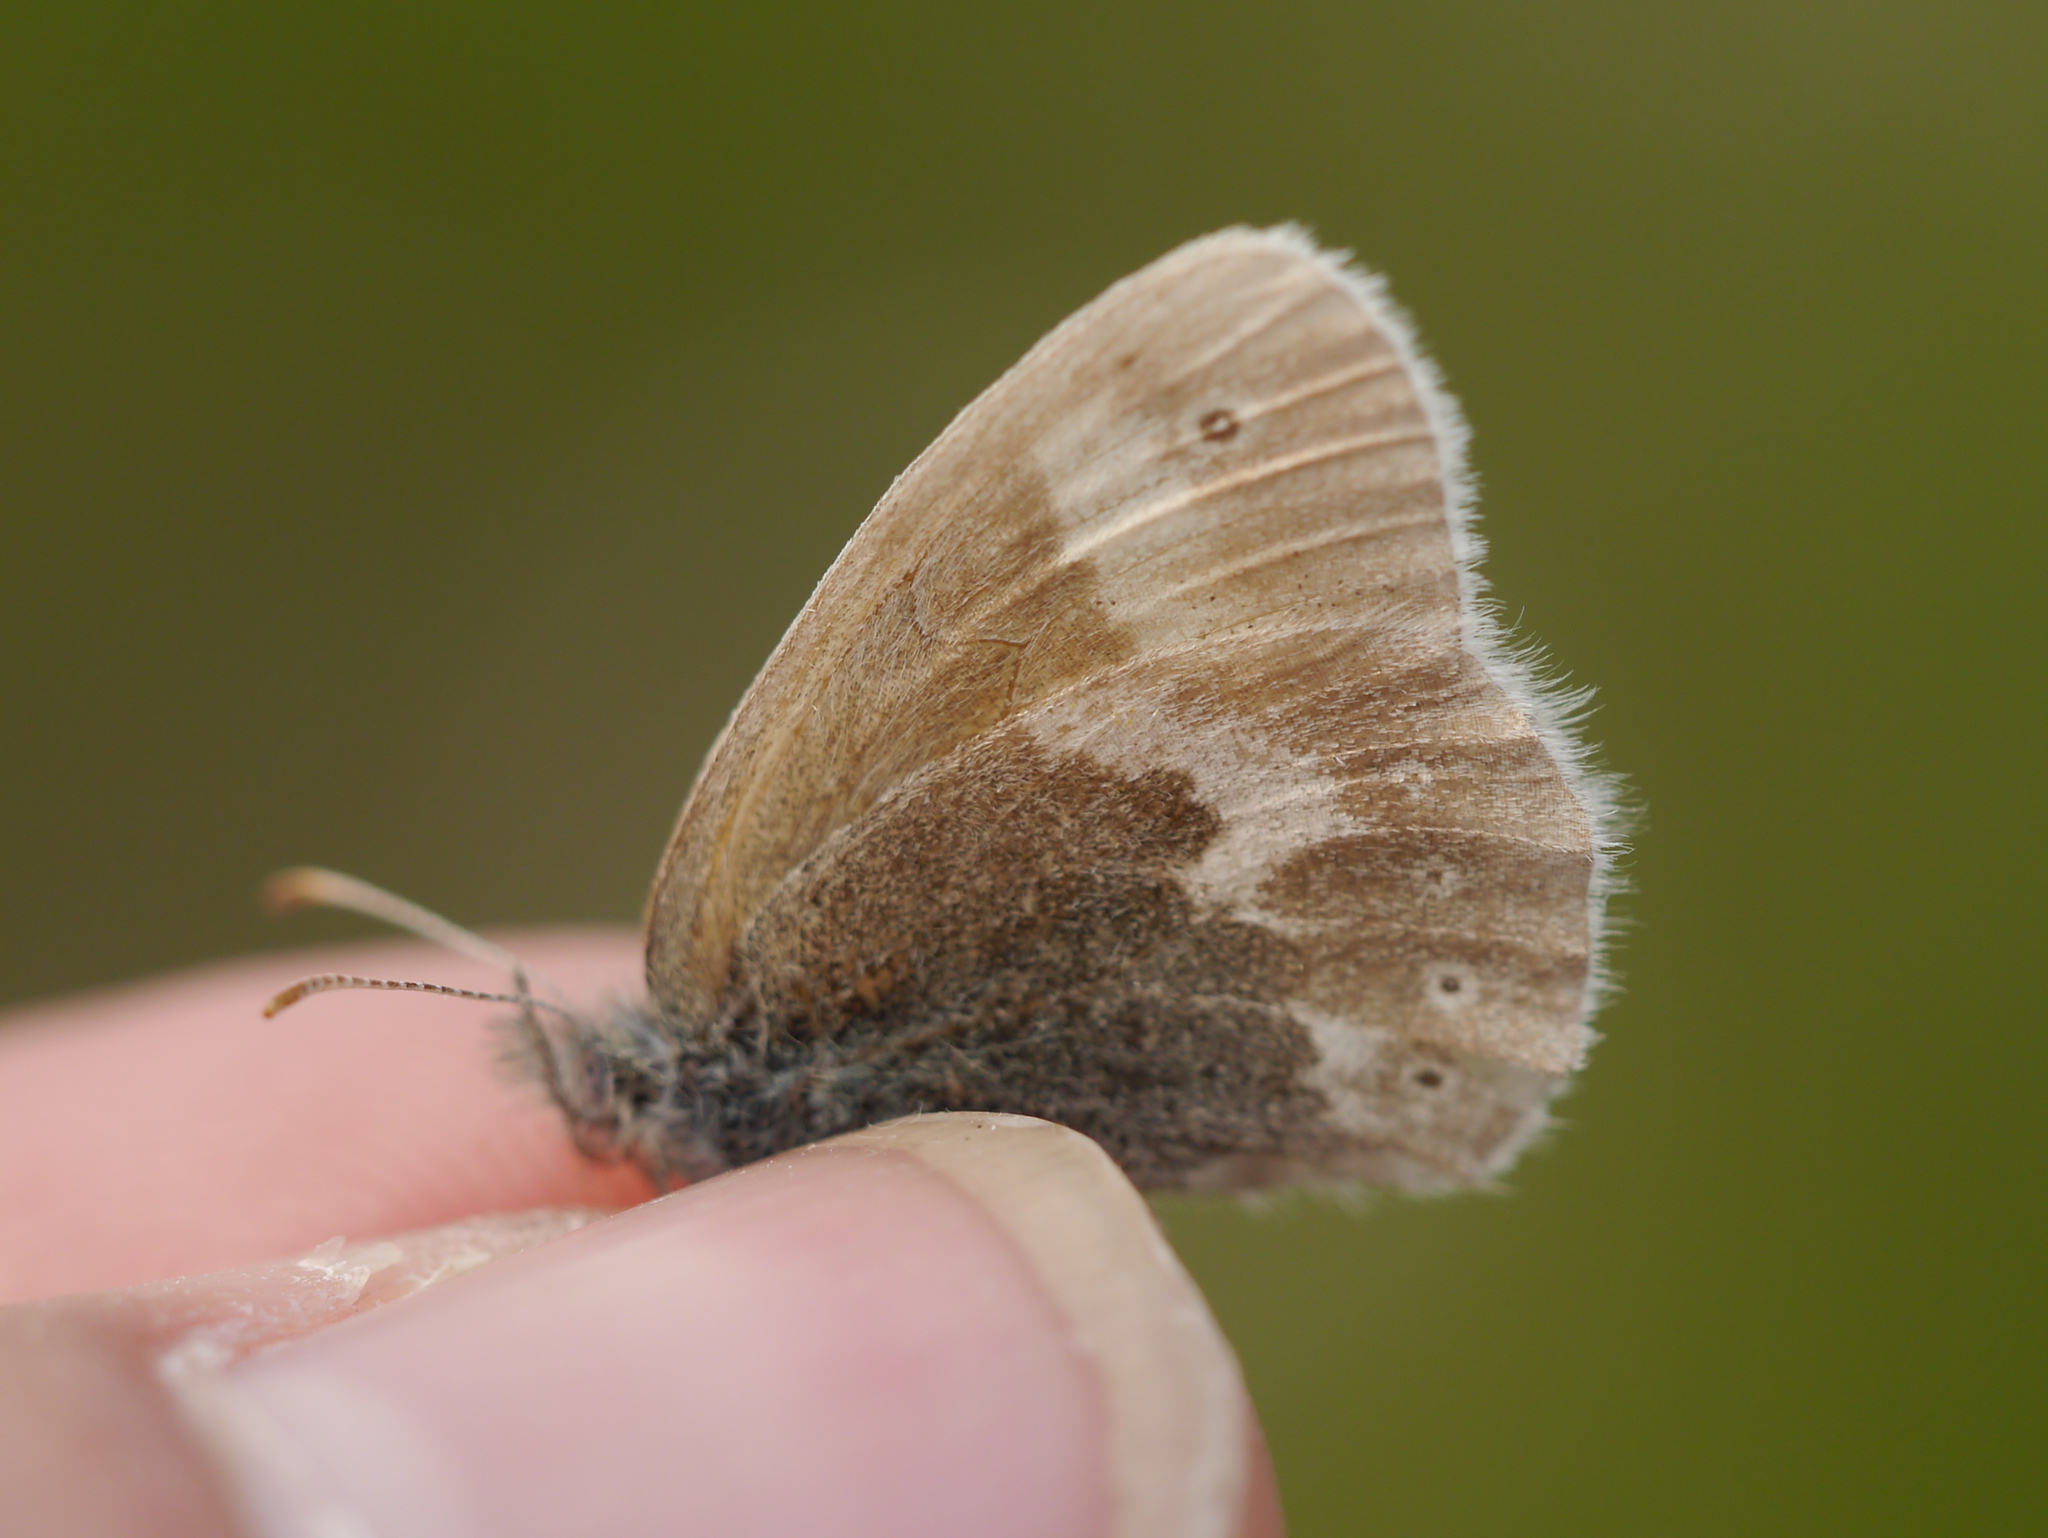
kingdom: Animalia
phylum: Arthropoda
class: Insecta
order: Lepidoptera
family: Nymphalidae
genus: Coenonympha
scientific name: Coenonympha tullia
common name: Large heath
